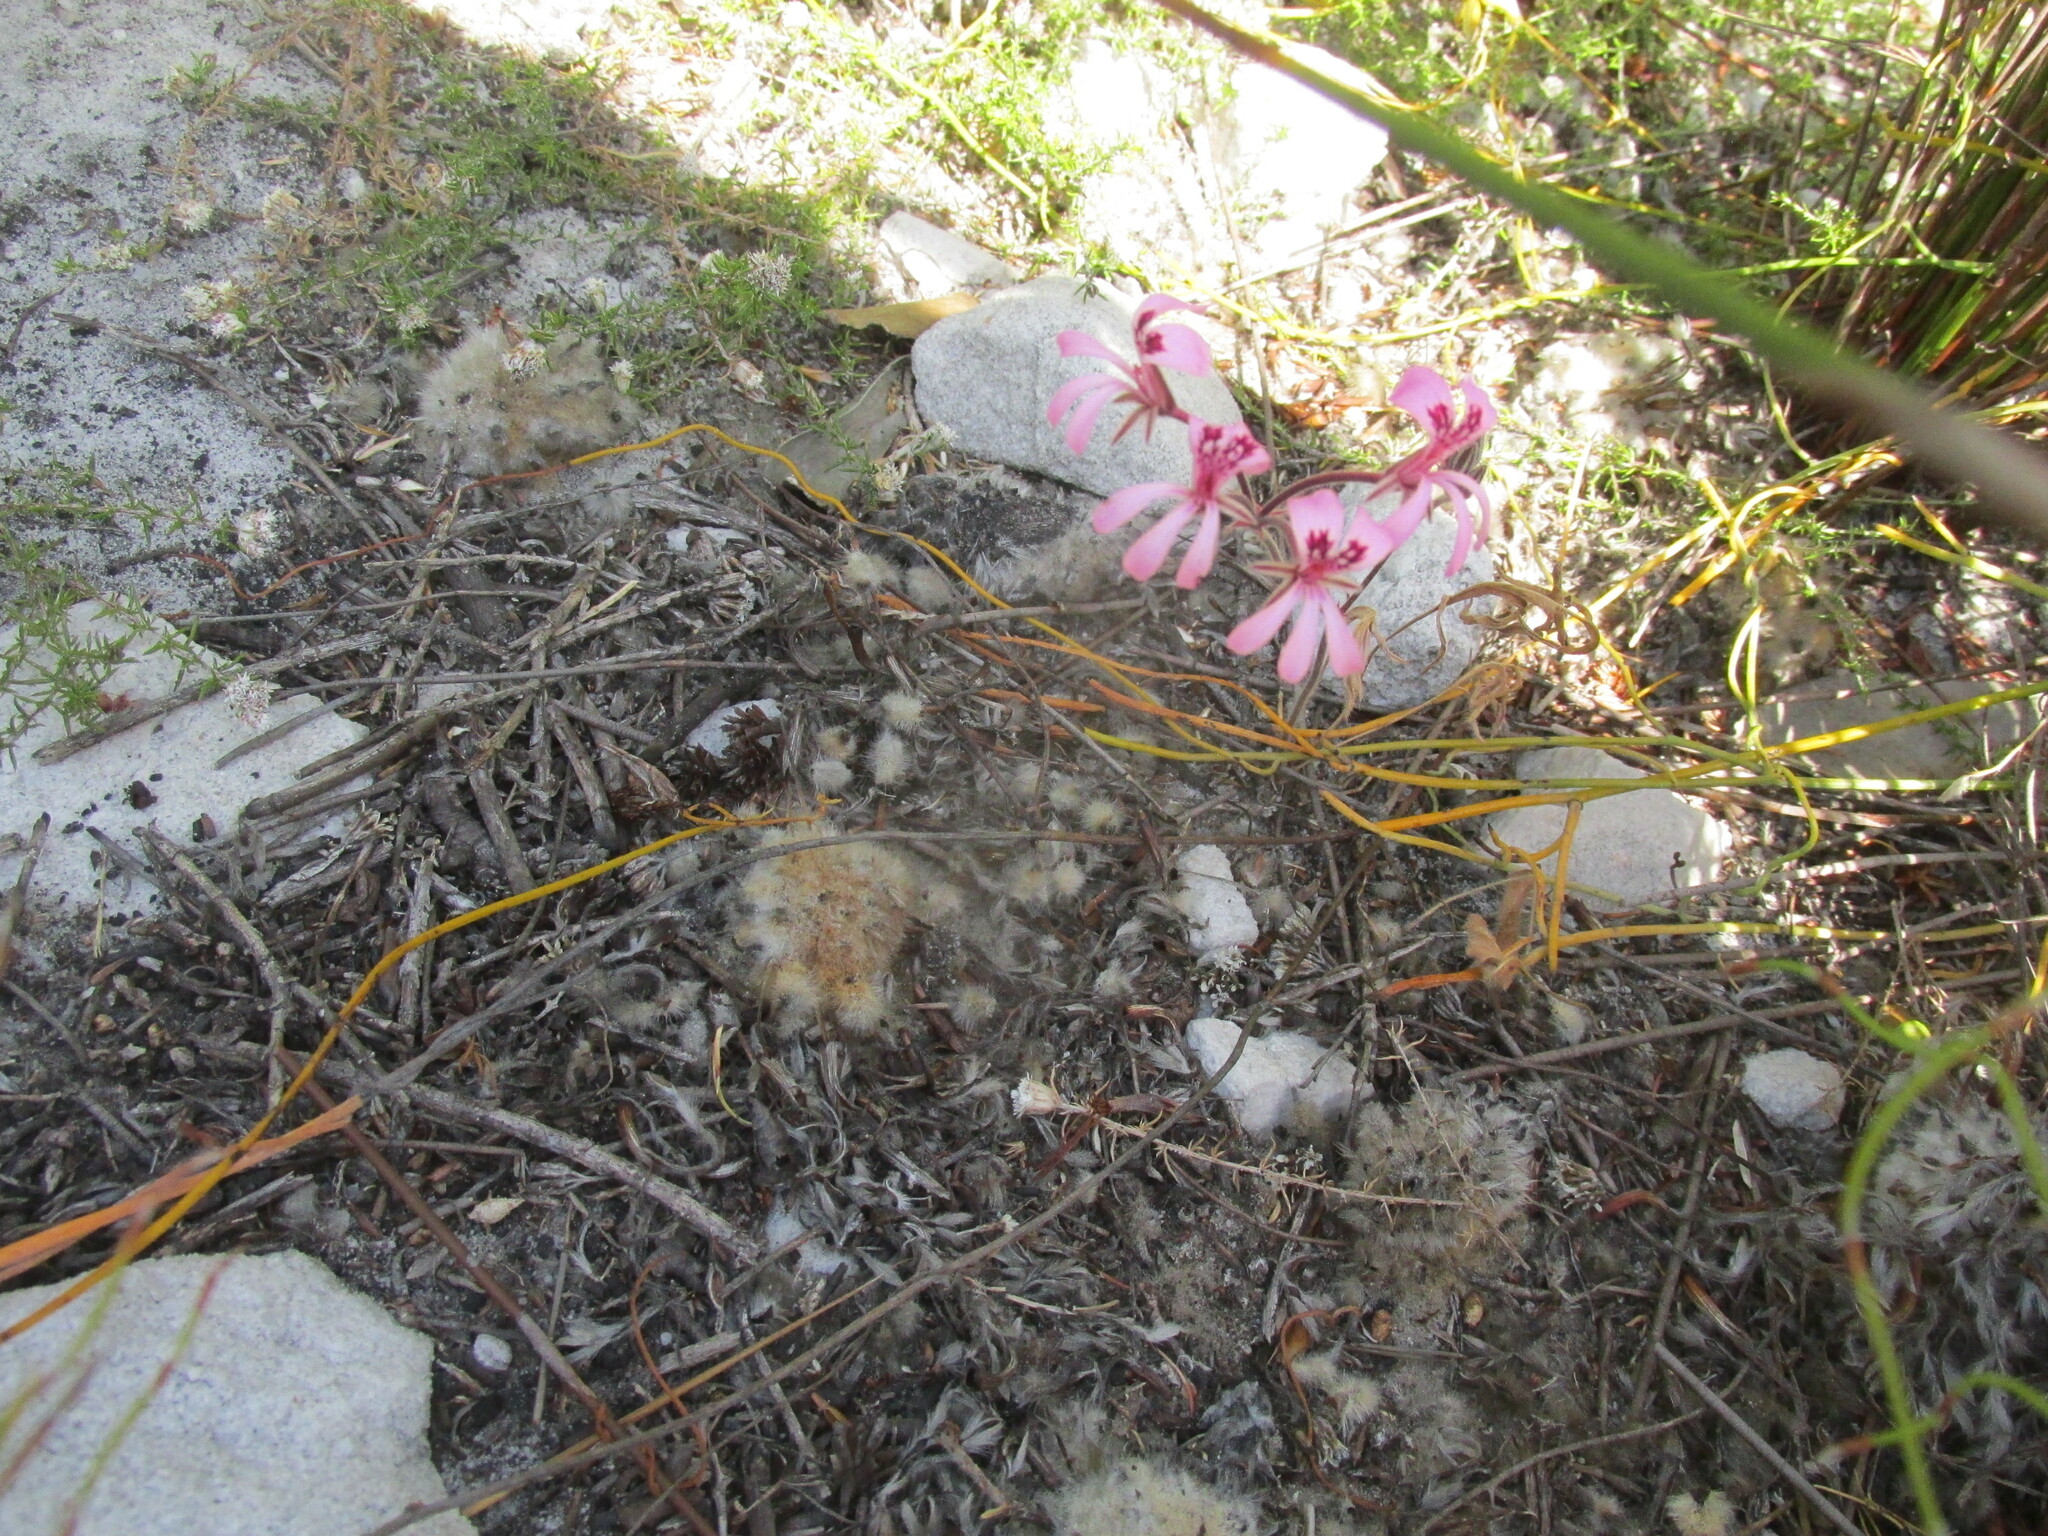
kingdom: Plantae
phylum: Tracheophyta
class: Magnoliopsida
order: Geraniales
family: Geraniaceae
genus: Pelargonium
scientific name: Pelargonium psammophilum
